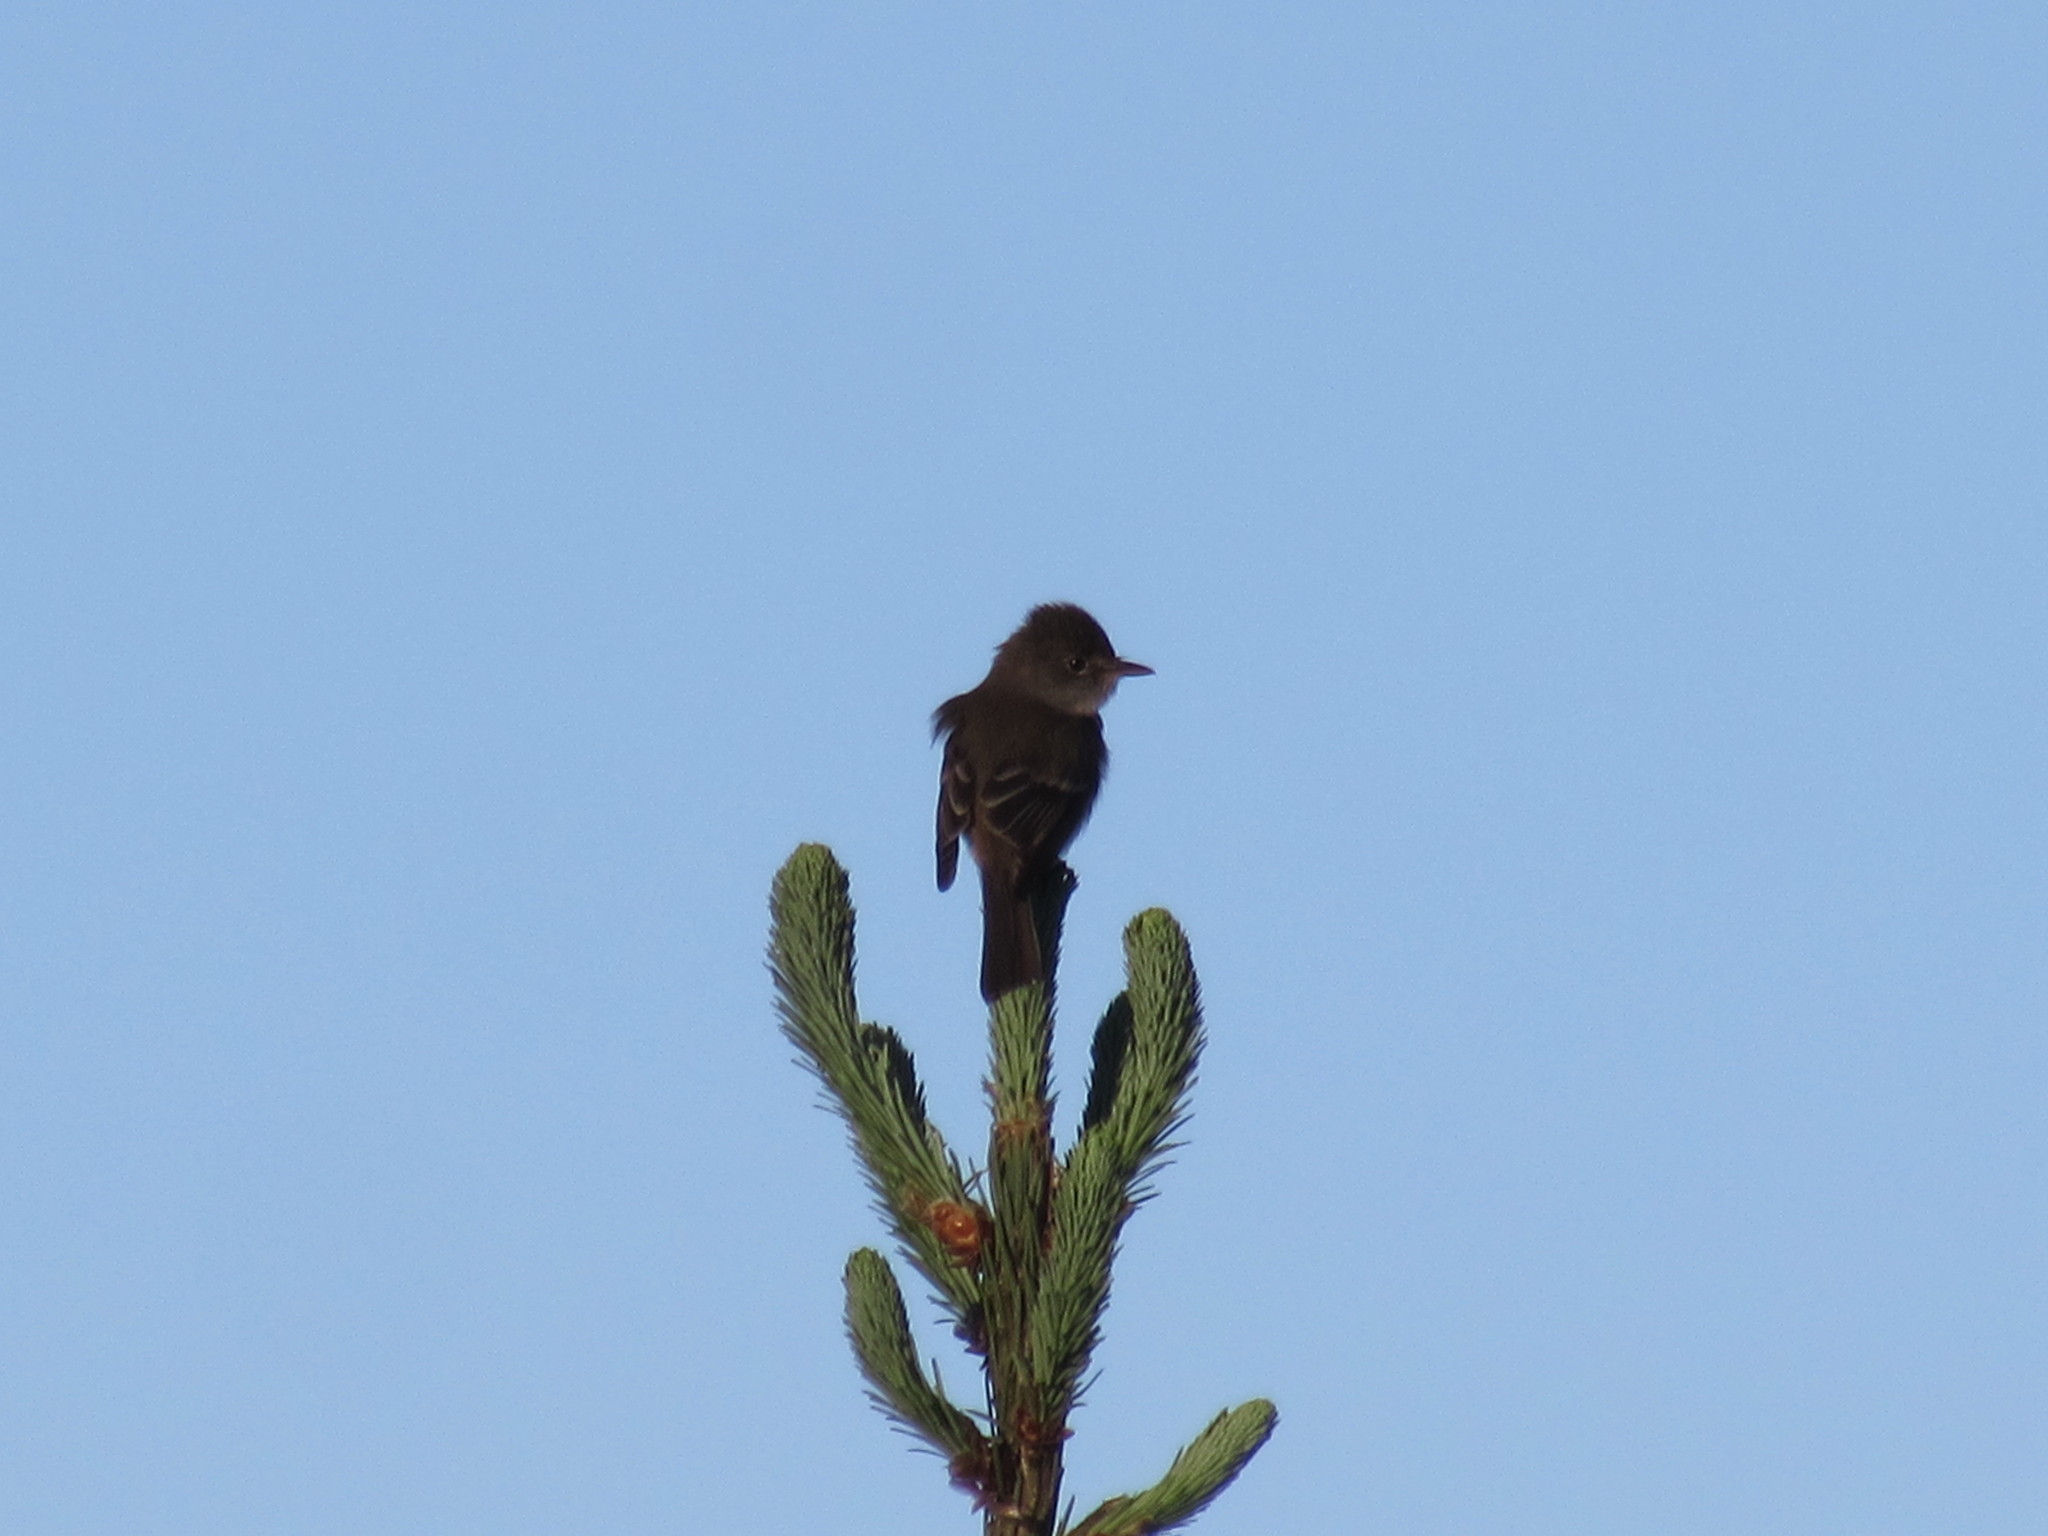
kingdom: Animalia
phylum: Chordata
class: Aves
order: Passeriformes
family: Tyrannidae
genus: Contopus
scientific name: Contopus sordidulus
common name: Western wood-pewee
